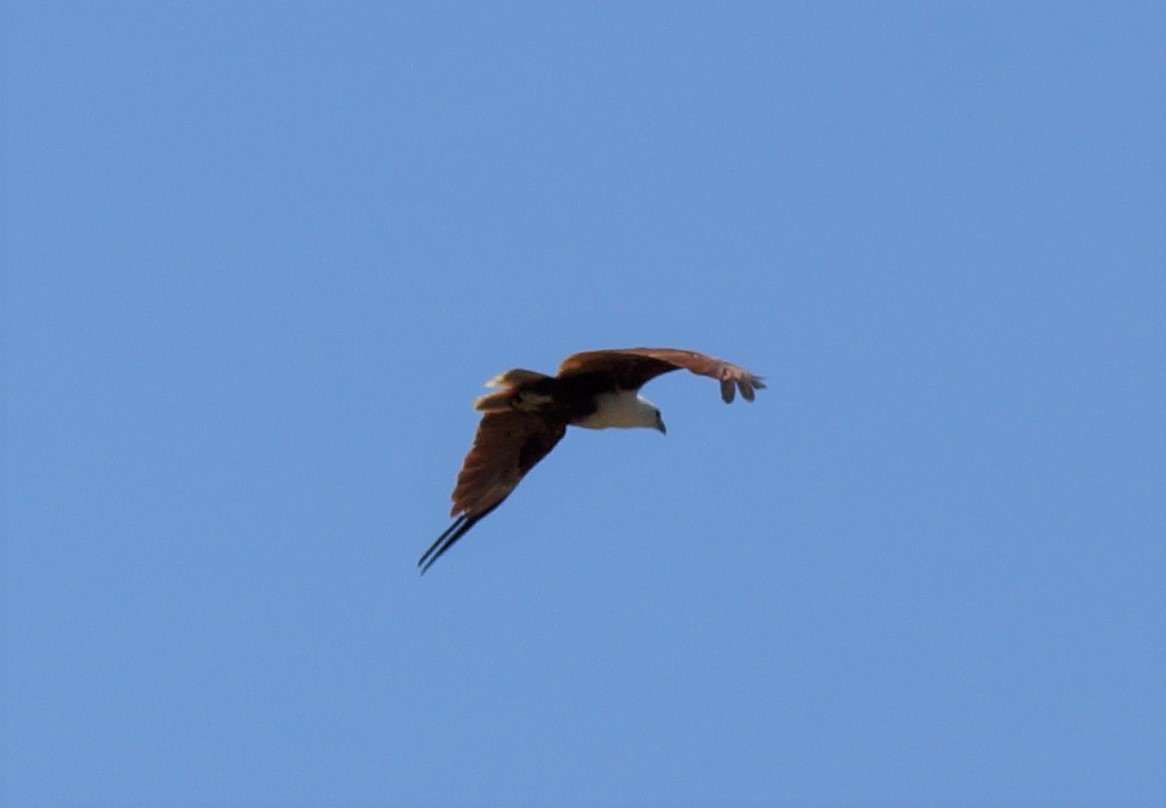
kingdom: Animalia
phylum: Chordata
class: Aves
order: Accipitriformes
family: Accipitridae
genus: Haliastur
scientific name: Haliastur indus
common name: Brahminy kite
